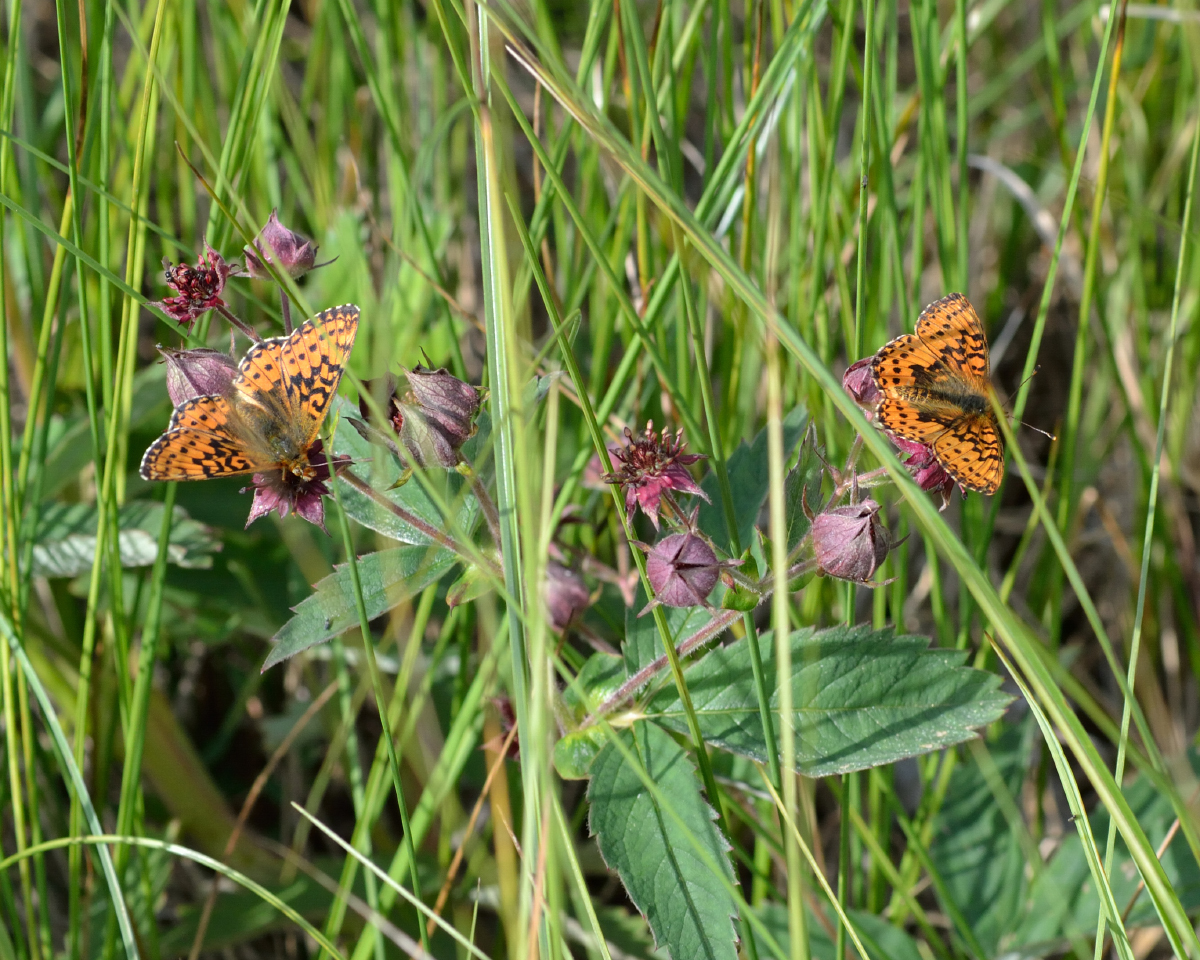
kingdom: Animalia
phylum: Arthropoda
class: Insecta
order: Lepidoptera
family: Nymphalidae
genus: Boloria
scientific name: Boloria aquilonaris
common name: Cranberry fritillary
